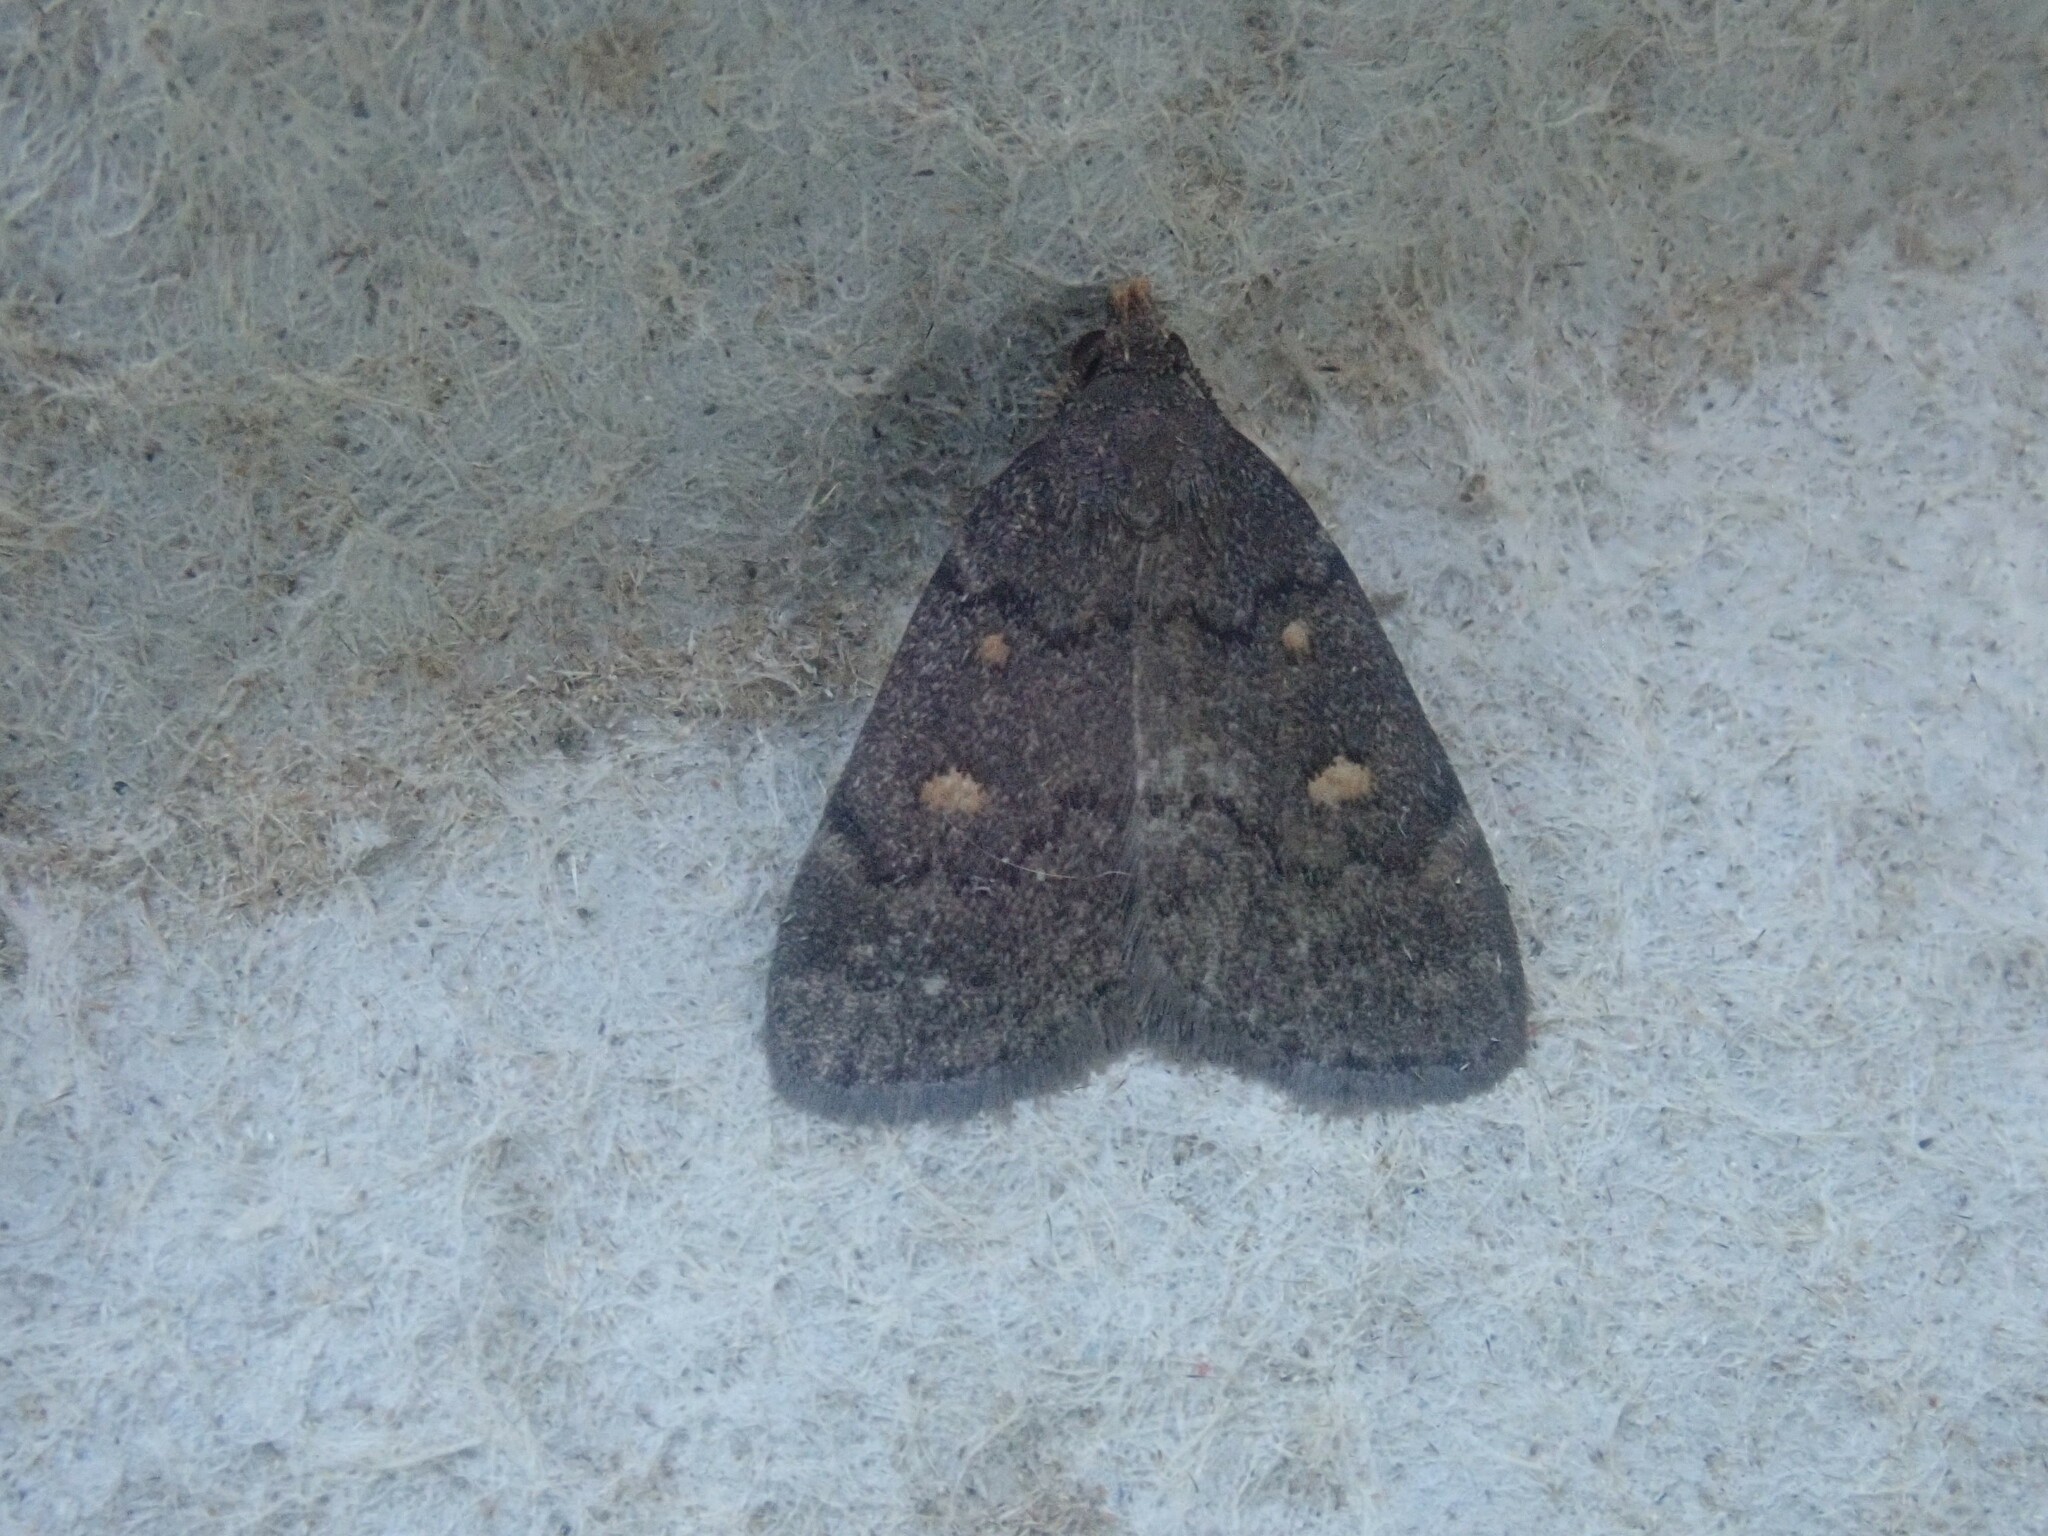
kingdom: Animalia
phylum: Arthropoda
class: Insecta
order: Lepidoptera
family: Erebidae
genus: Idia
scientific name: Idia diminuendis
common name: Orange-spotted idia moth
